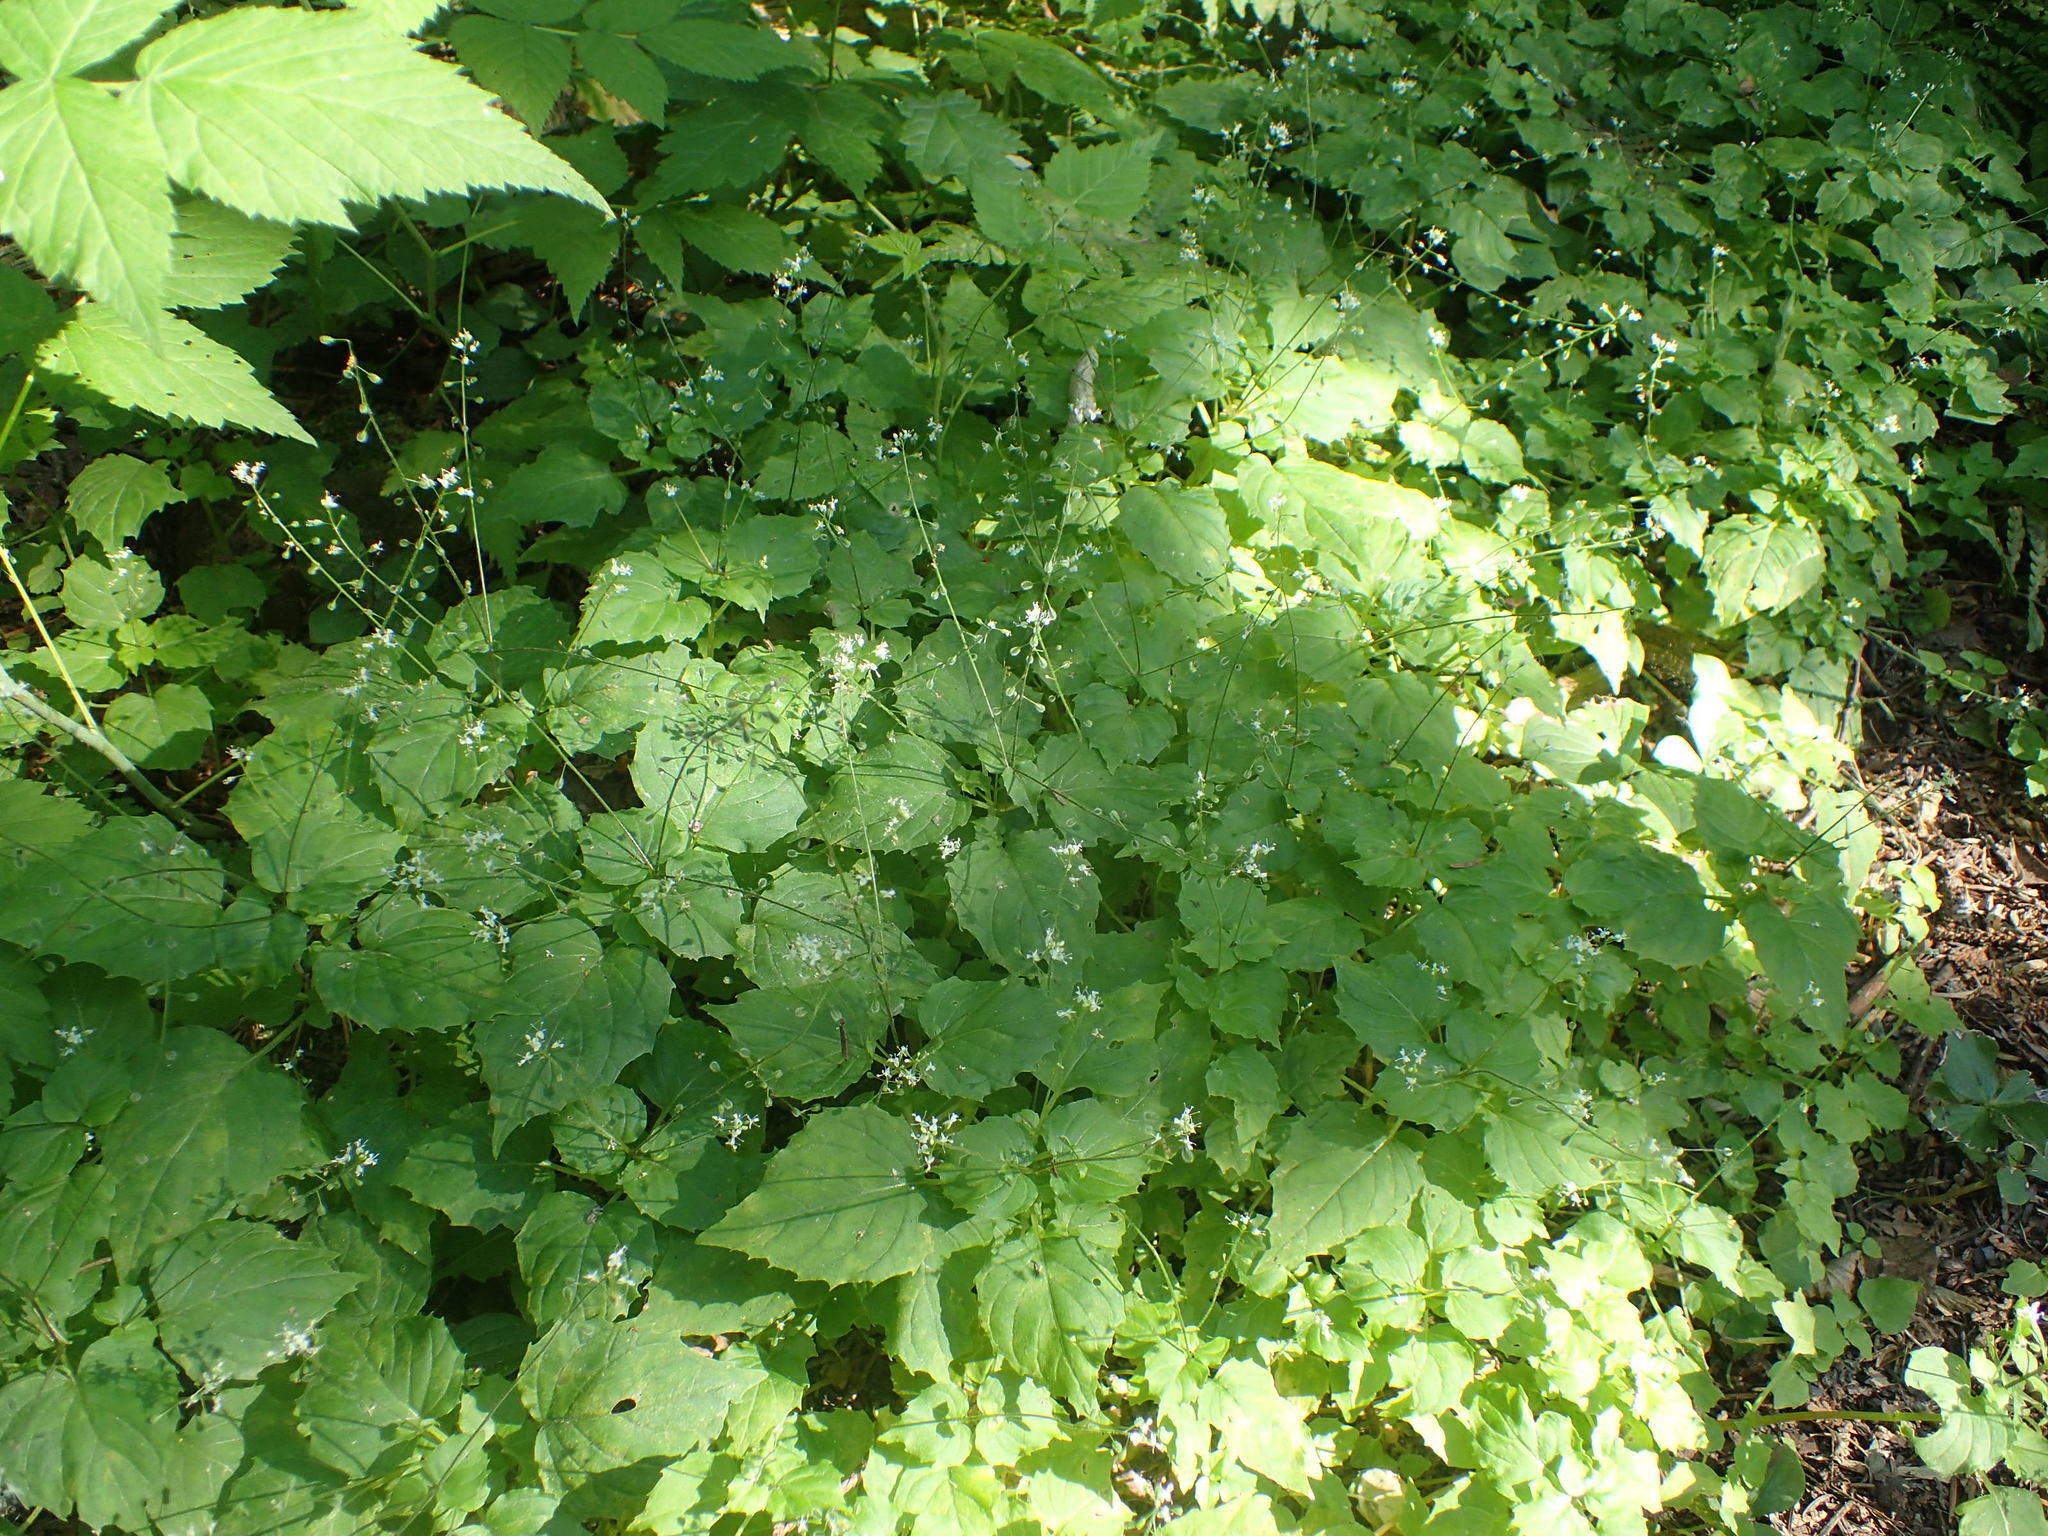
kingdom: Plantae
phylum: Tracheophyta
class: Magnoliopsida
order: Myrtales
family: Onagraceae
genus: Circaea
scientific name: Circaea alpina
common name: Alpine enchanter's-nightshade
